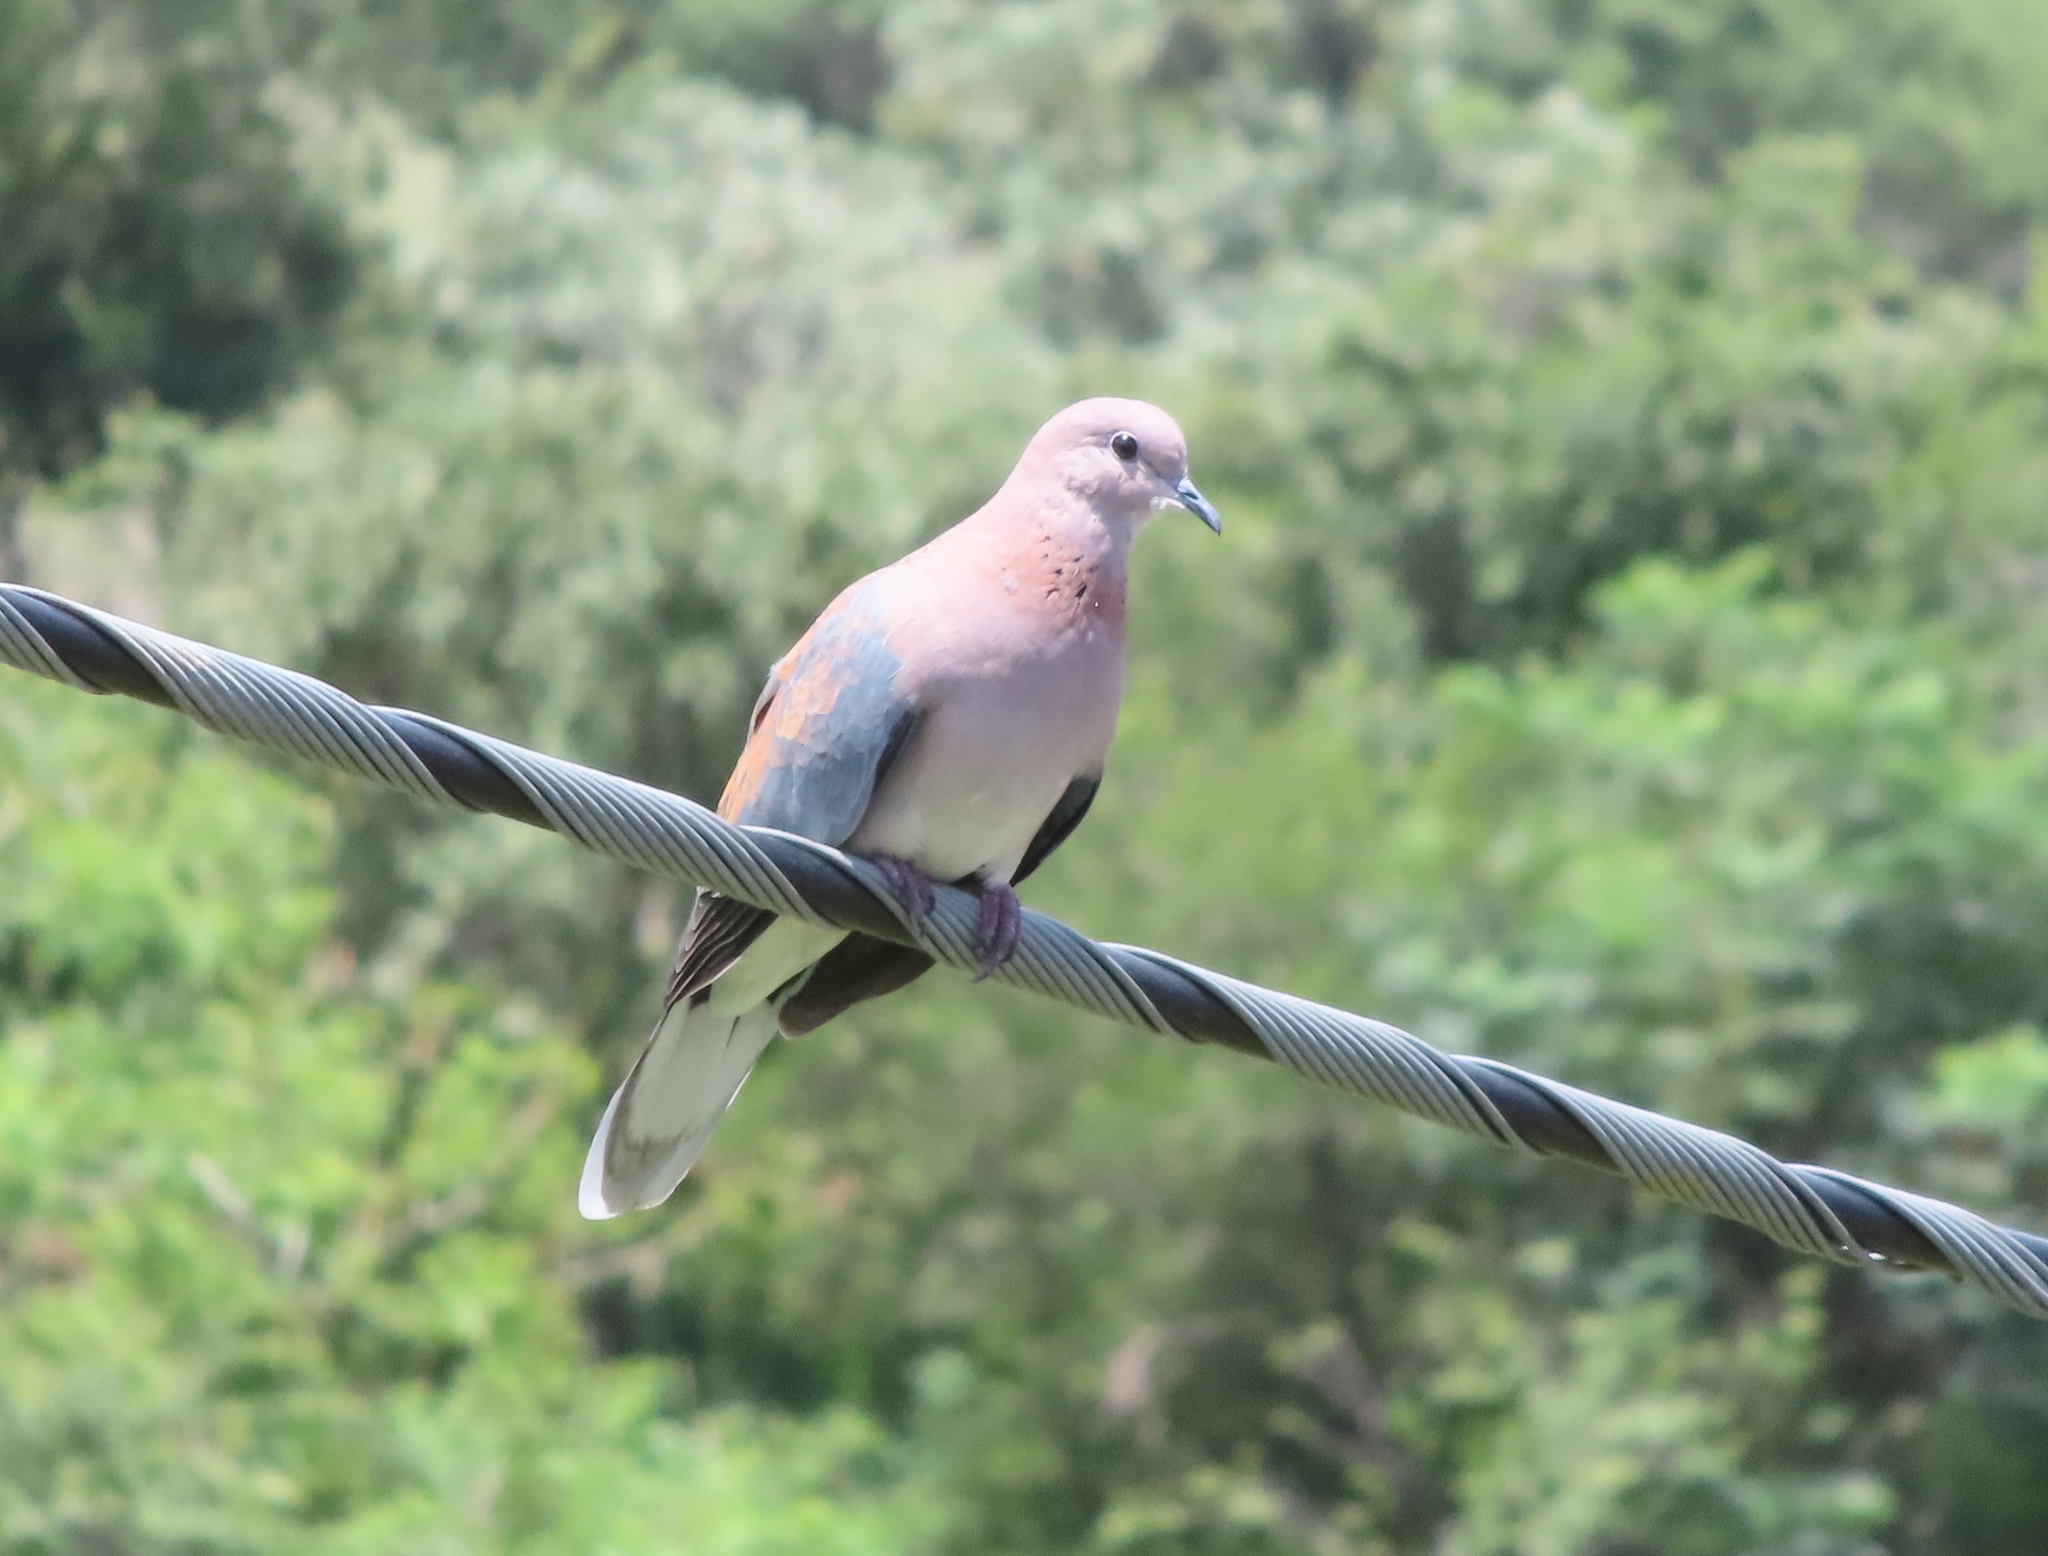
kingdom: Animalia
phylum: Chordata
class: Aves
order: Columbiformes
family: Columbidae
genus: Spilopelia
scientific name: Spilopelia senegalensis
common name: Laughing dove
